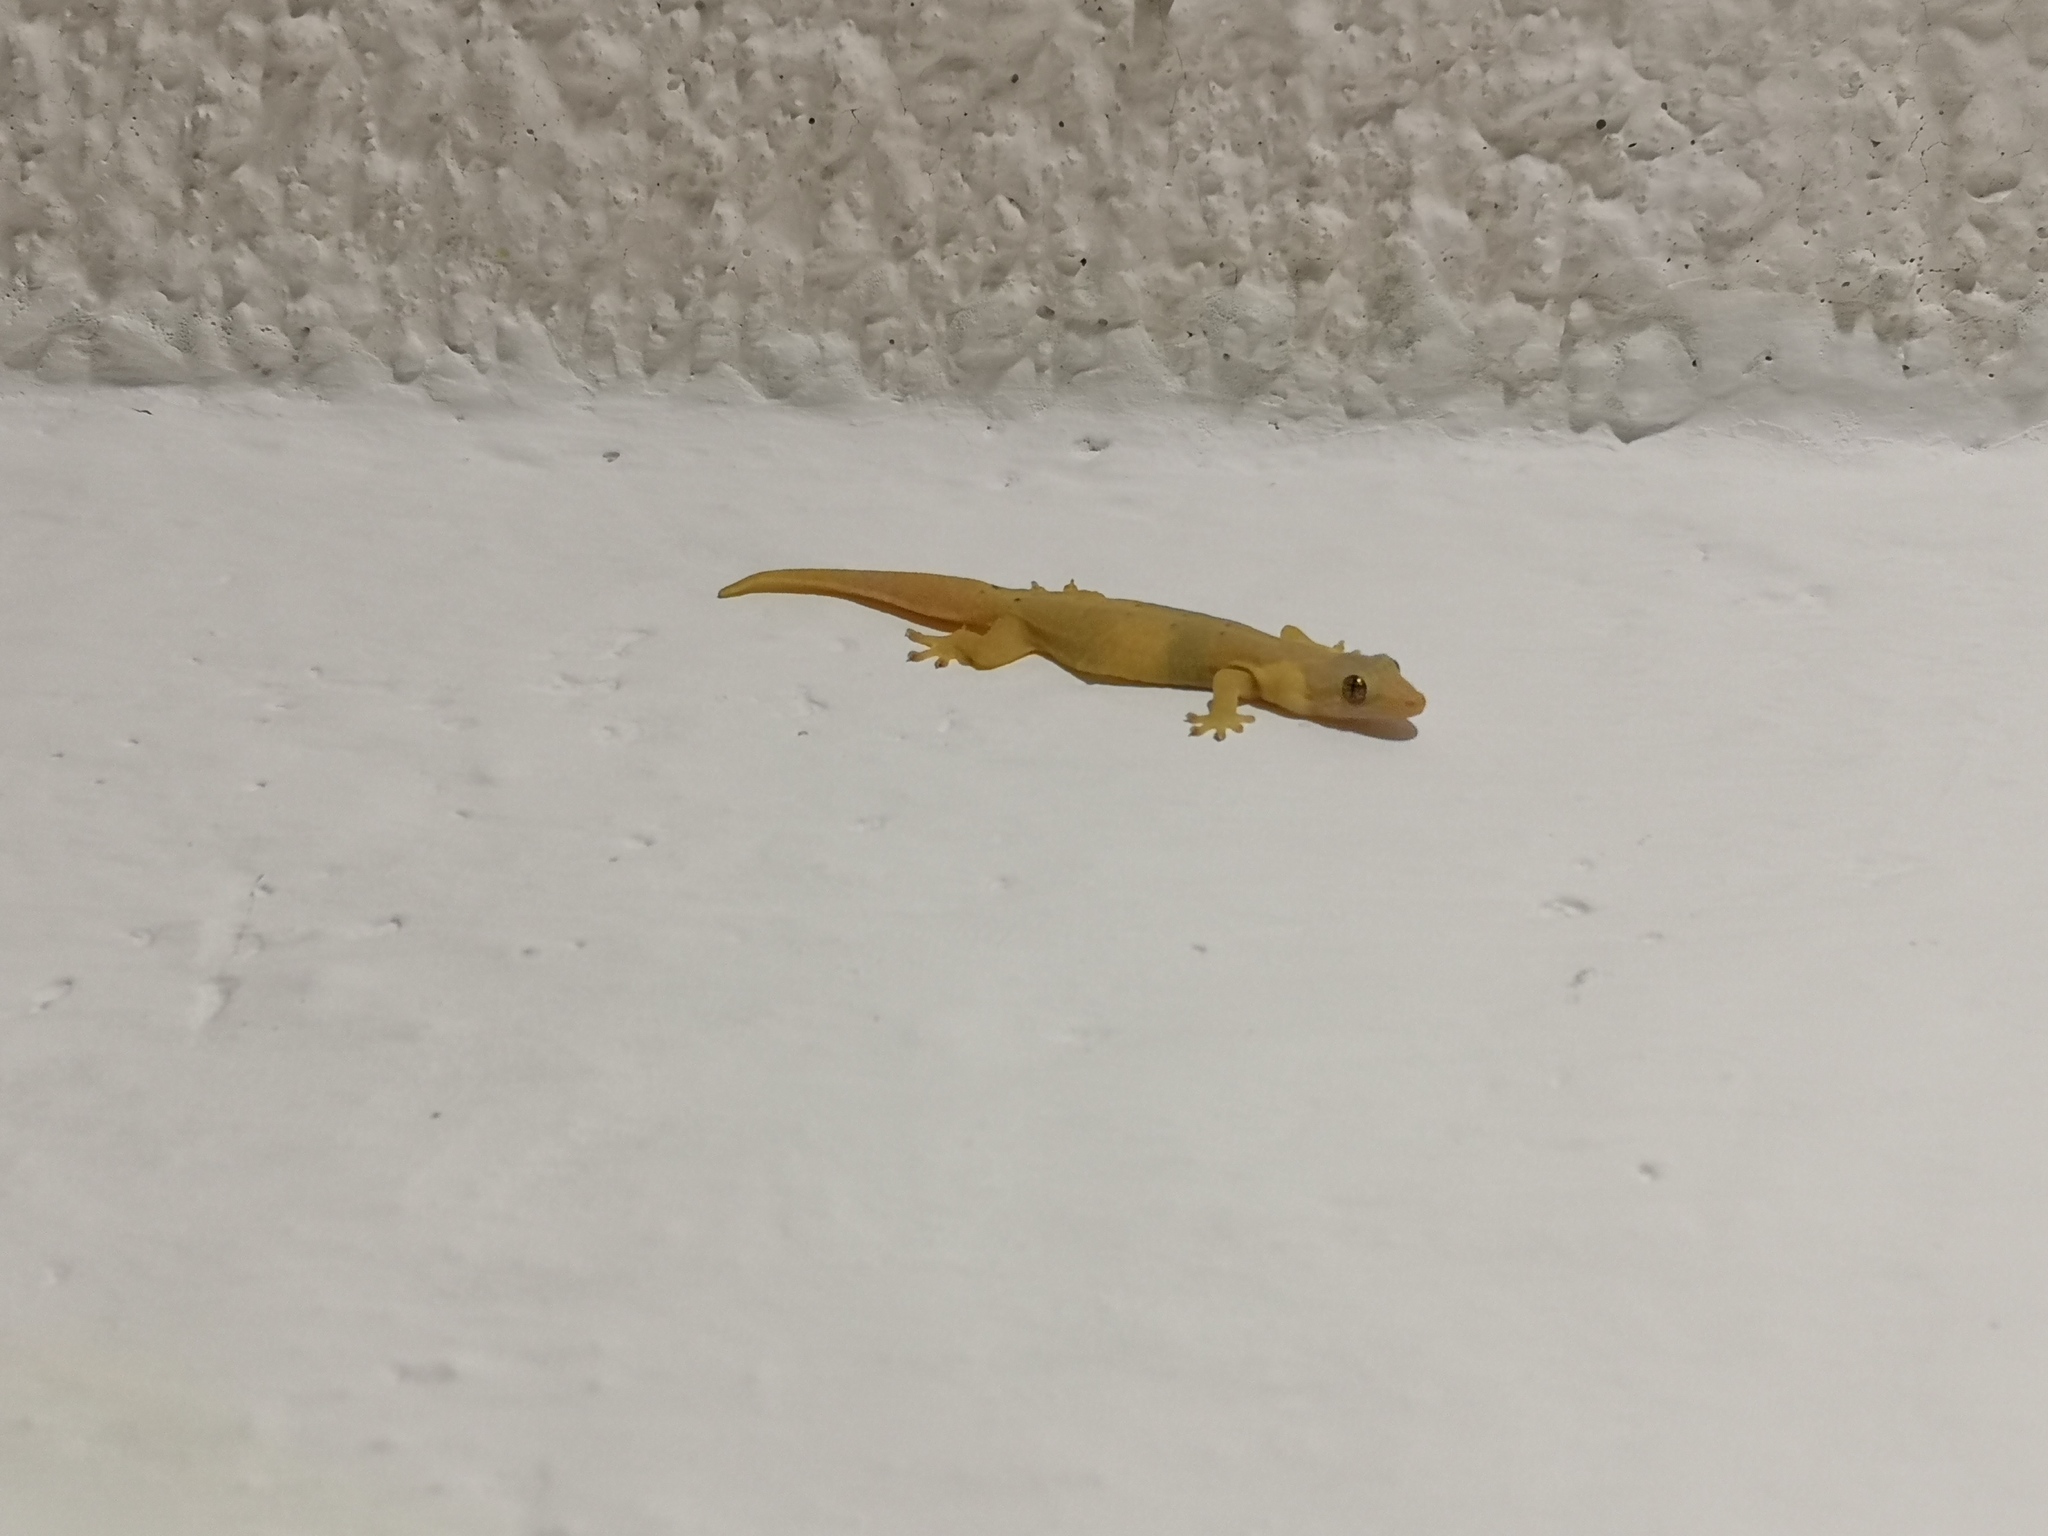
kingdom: Animalia
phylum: Chordata
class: Squamata
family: Gekkonidae
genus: Lepidodactylus
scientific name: Lepidodactylus lugubris
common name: Mourning gecko
